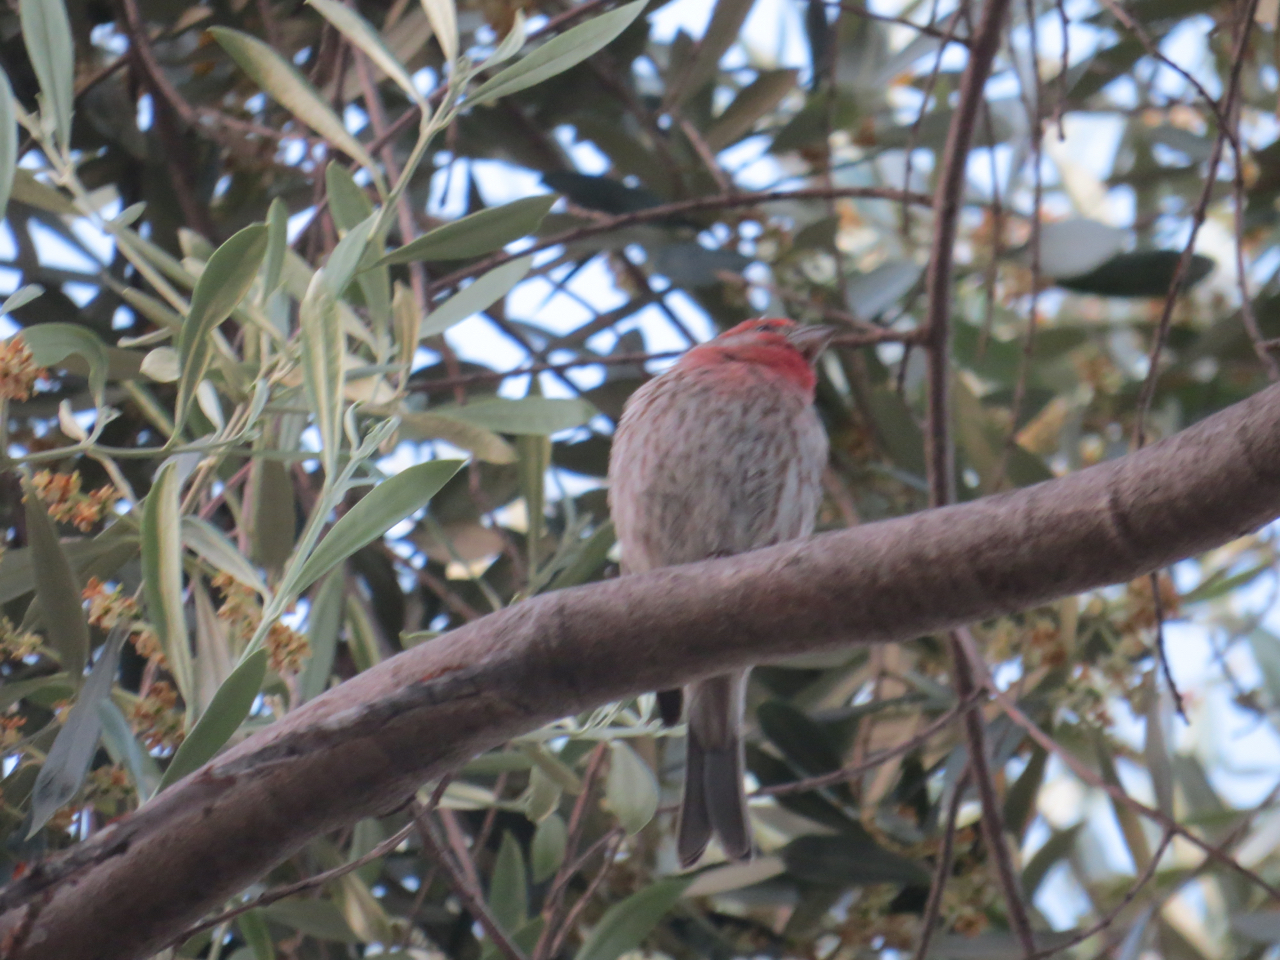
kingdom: Animalia
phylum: Chordata
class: Aves
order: Passeriformes
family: Fringillidae
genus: Haemorhous
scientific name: Haemorhous mexicanus
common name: House finch
